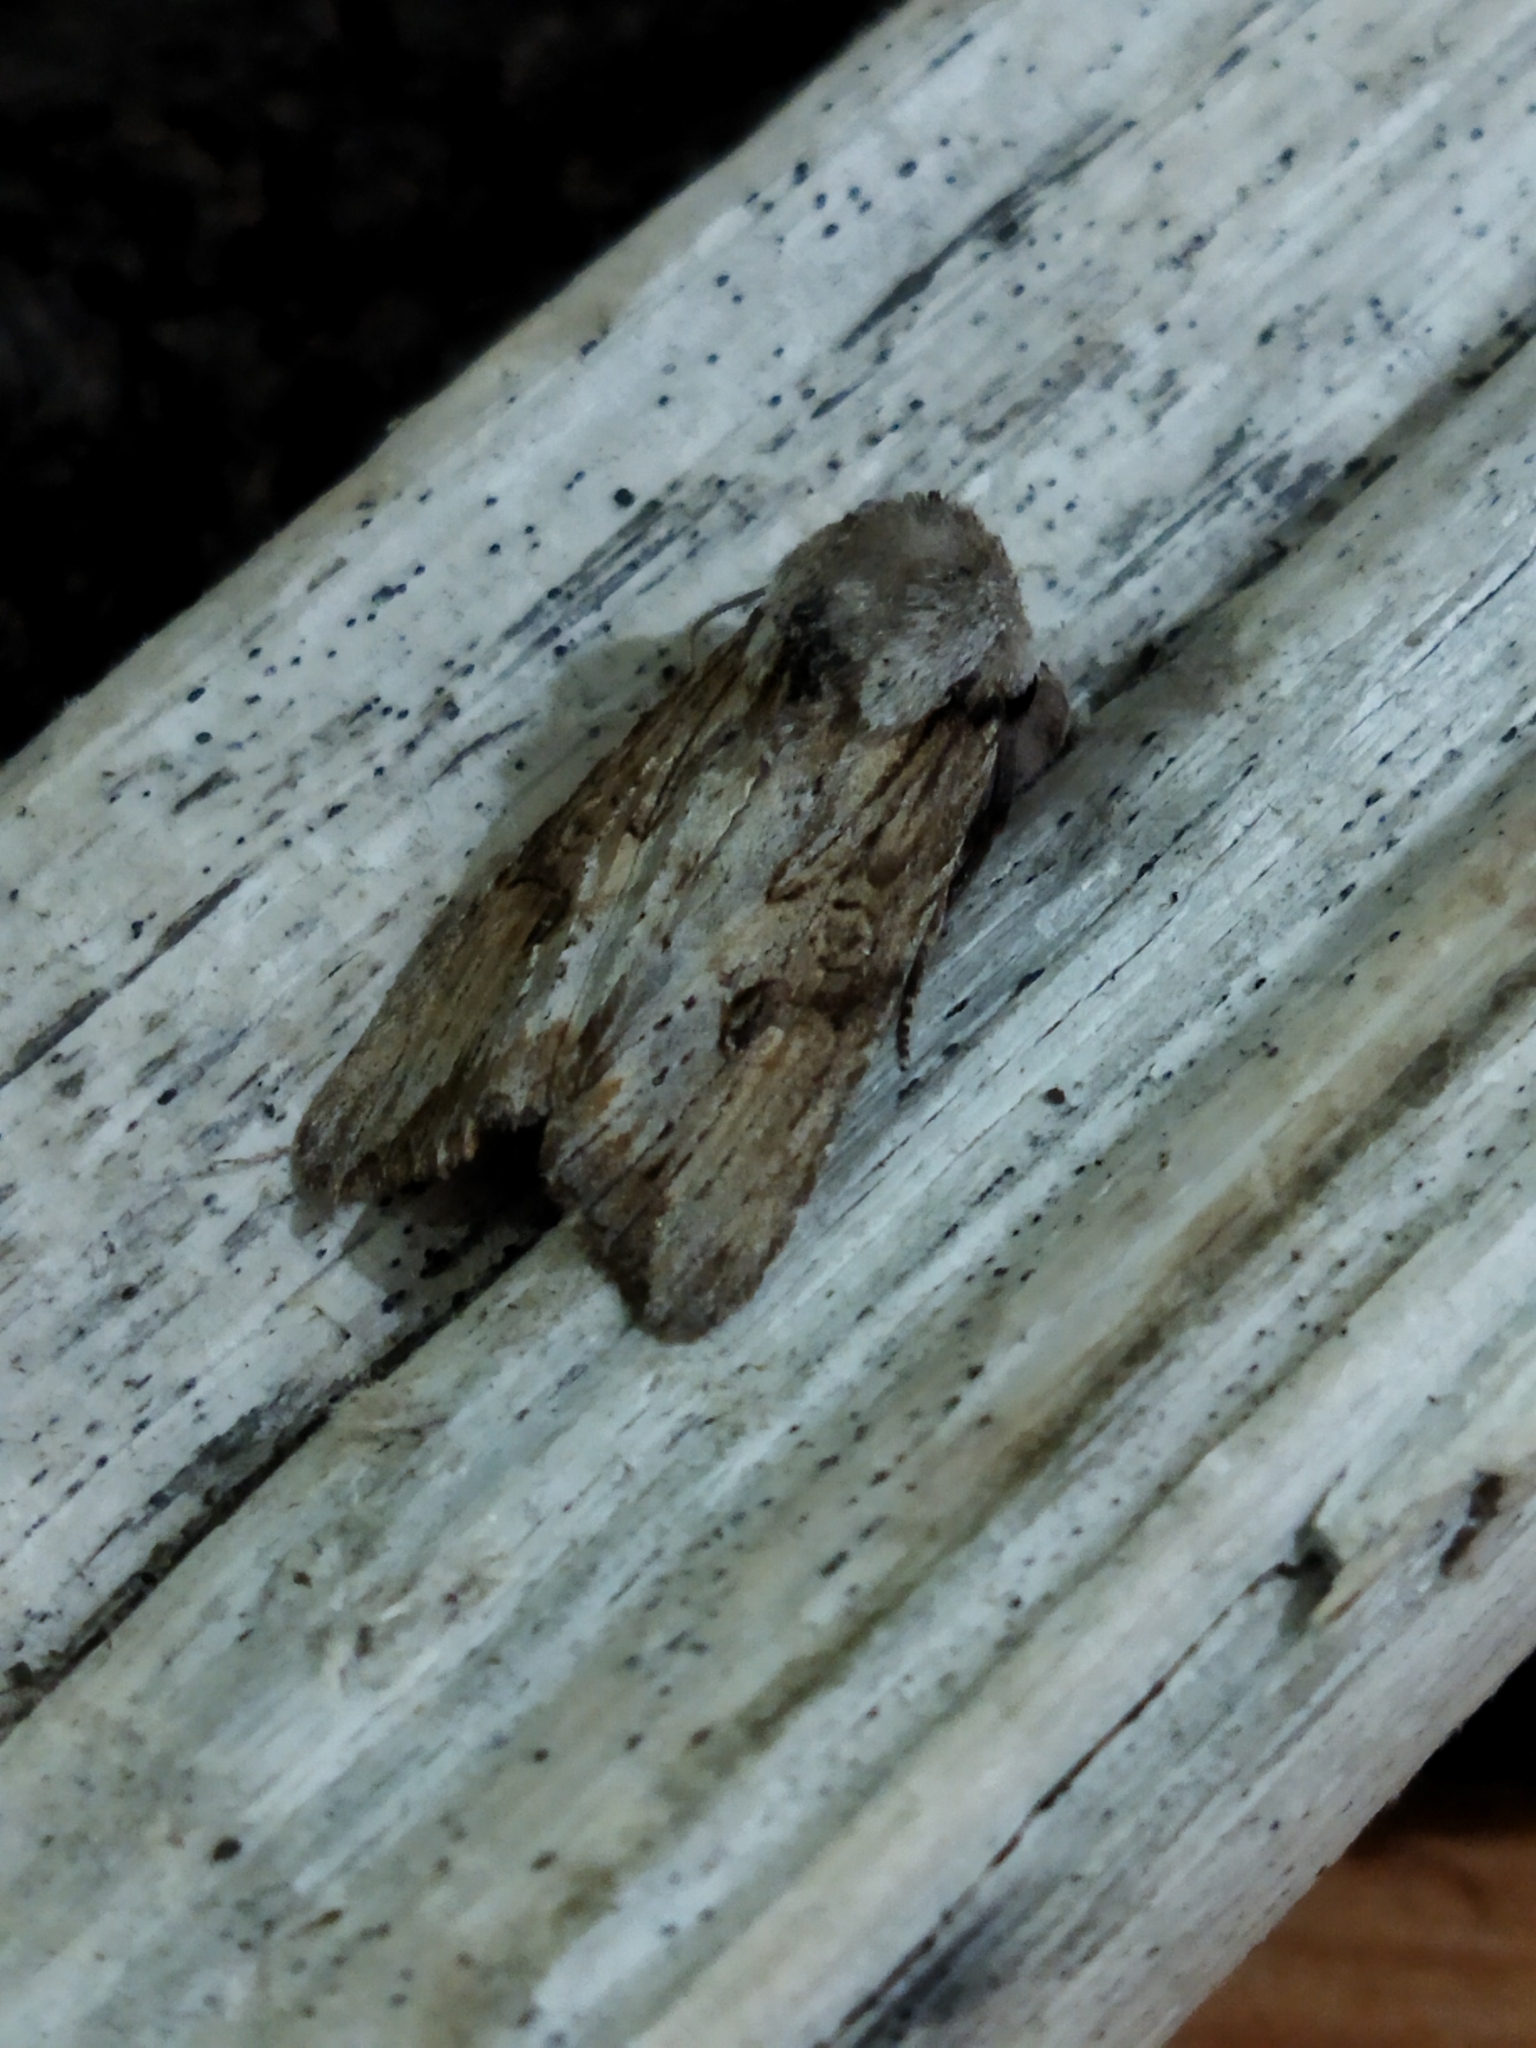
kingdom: Animalia
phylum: Arthropoda
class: Insecta
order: Lepidoptera
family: Noctuidae
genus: Egira
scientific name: Egira
